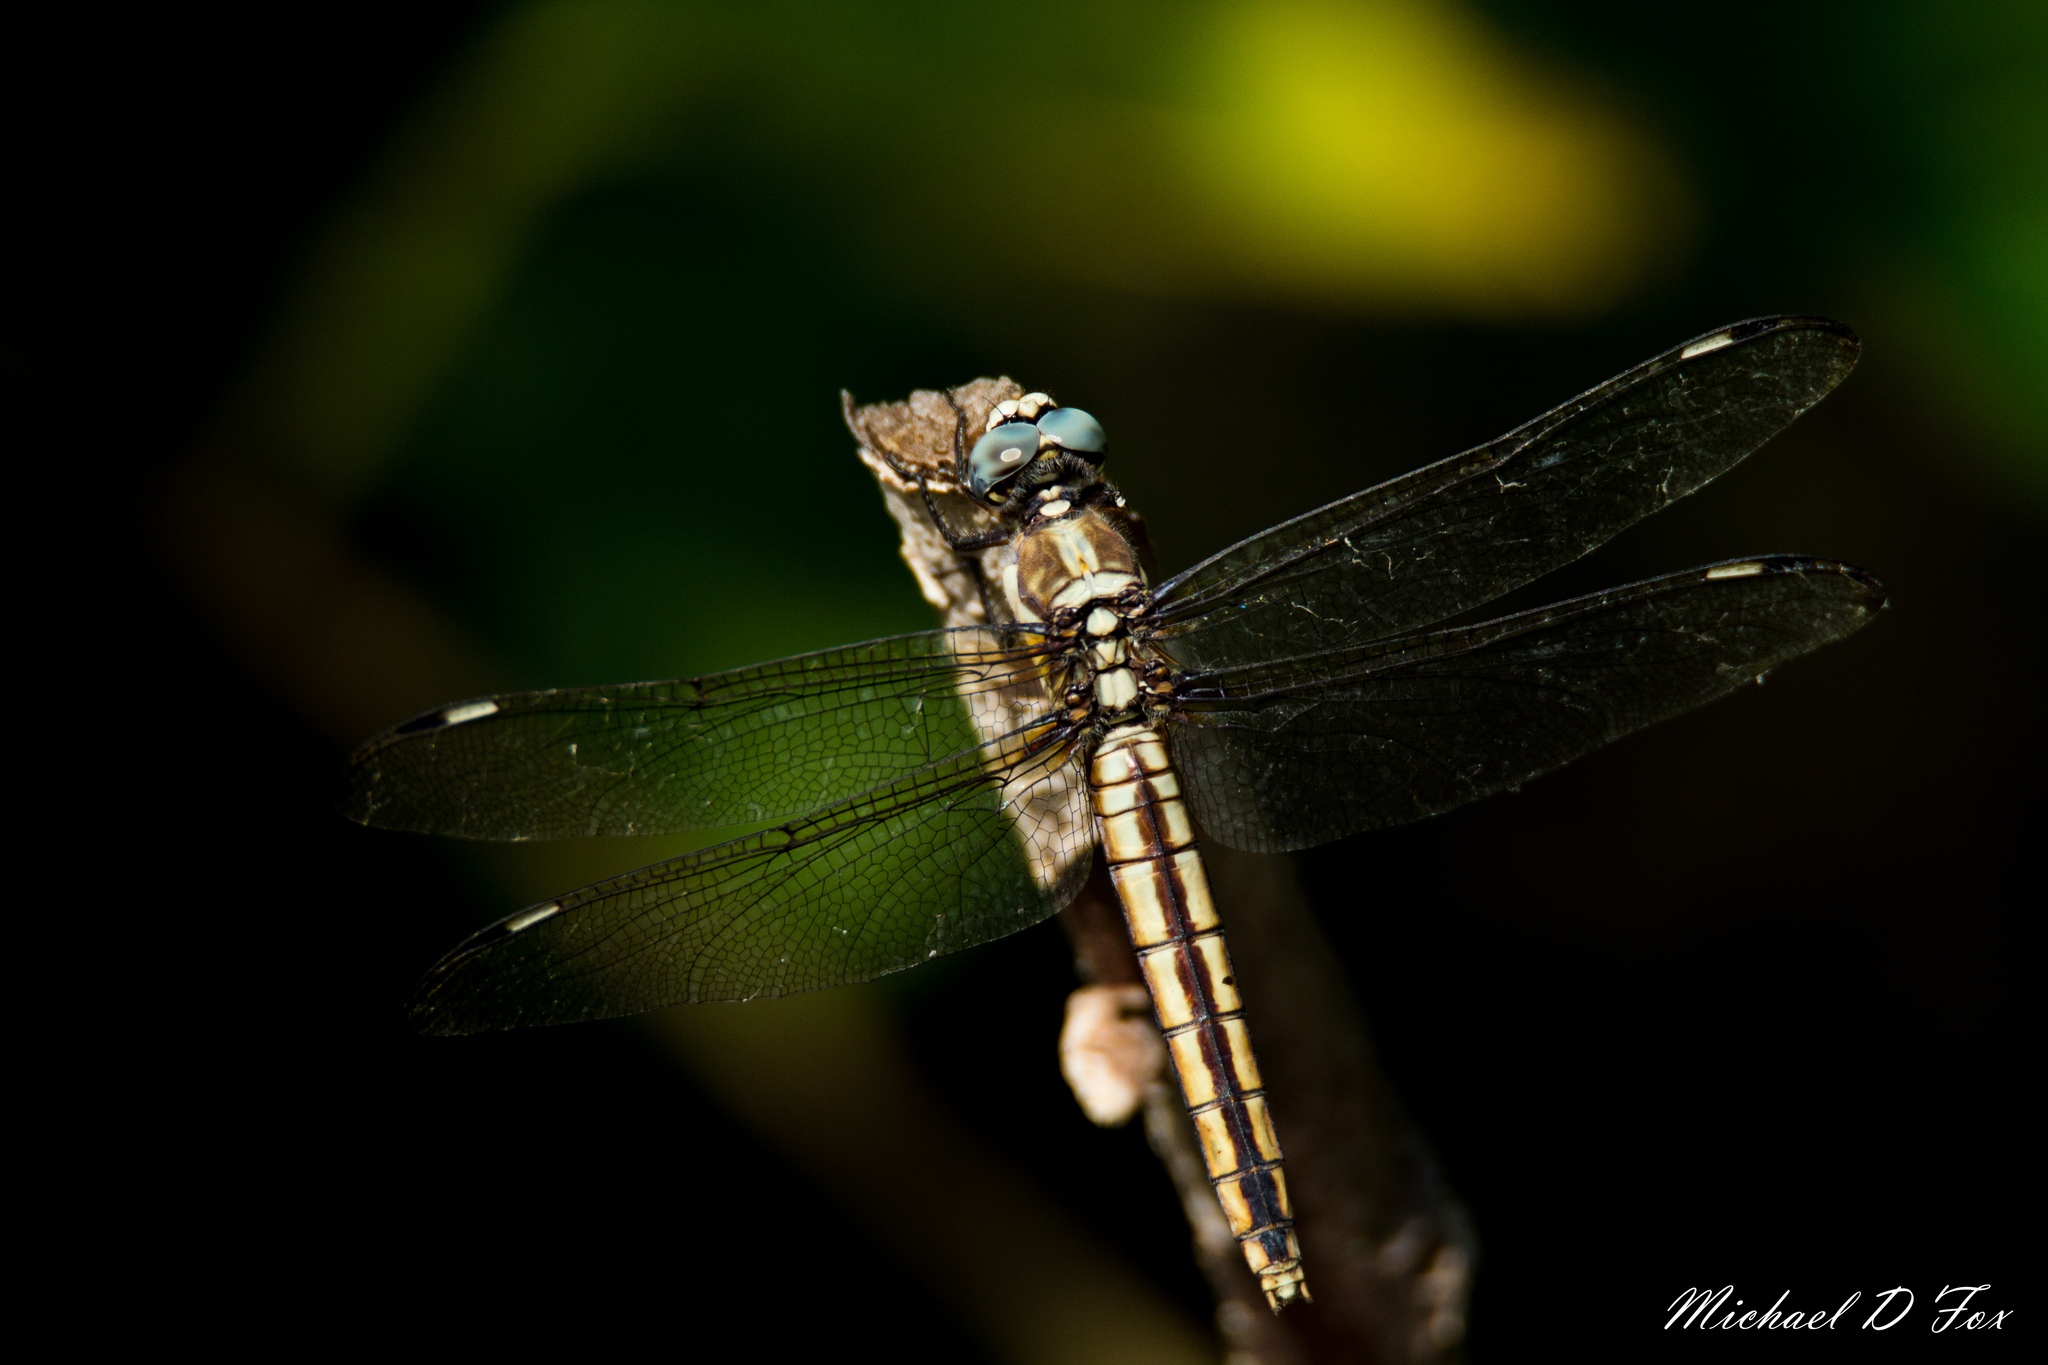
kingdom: Animalia
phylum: Arthropoda
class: Insecta
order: Odonata
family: Libellulidae
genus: Libellula
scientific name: Libellula comanche
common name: Comanche skimmer
